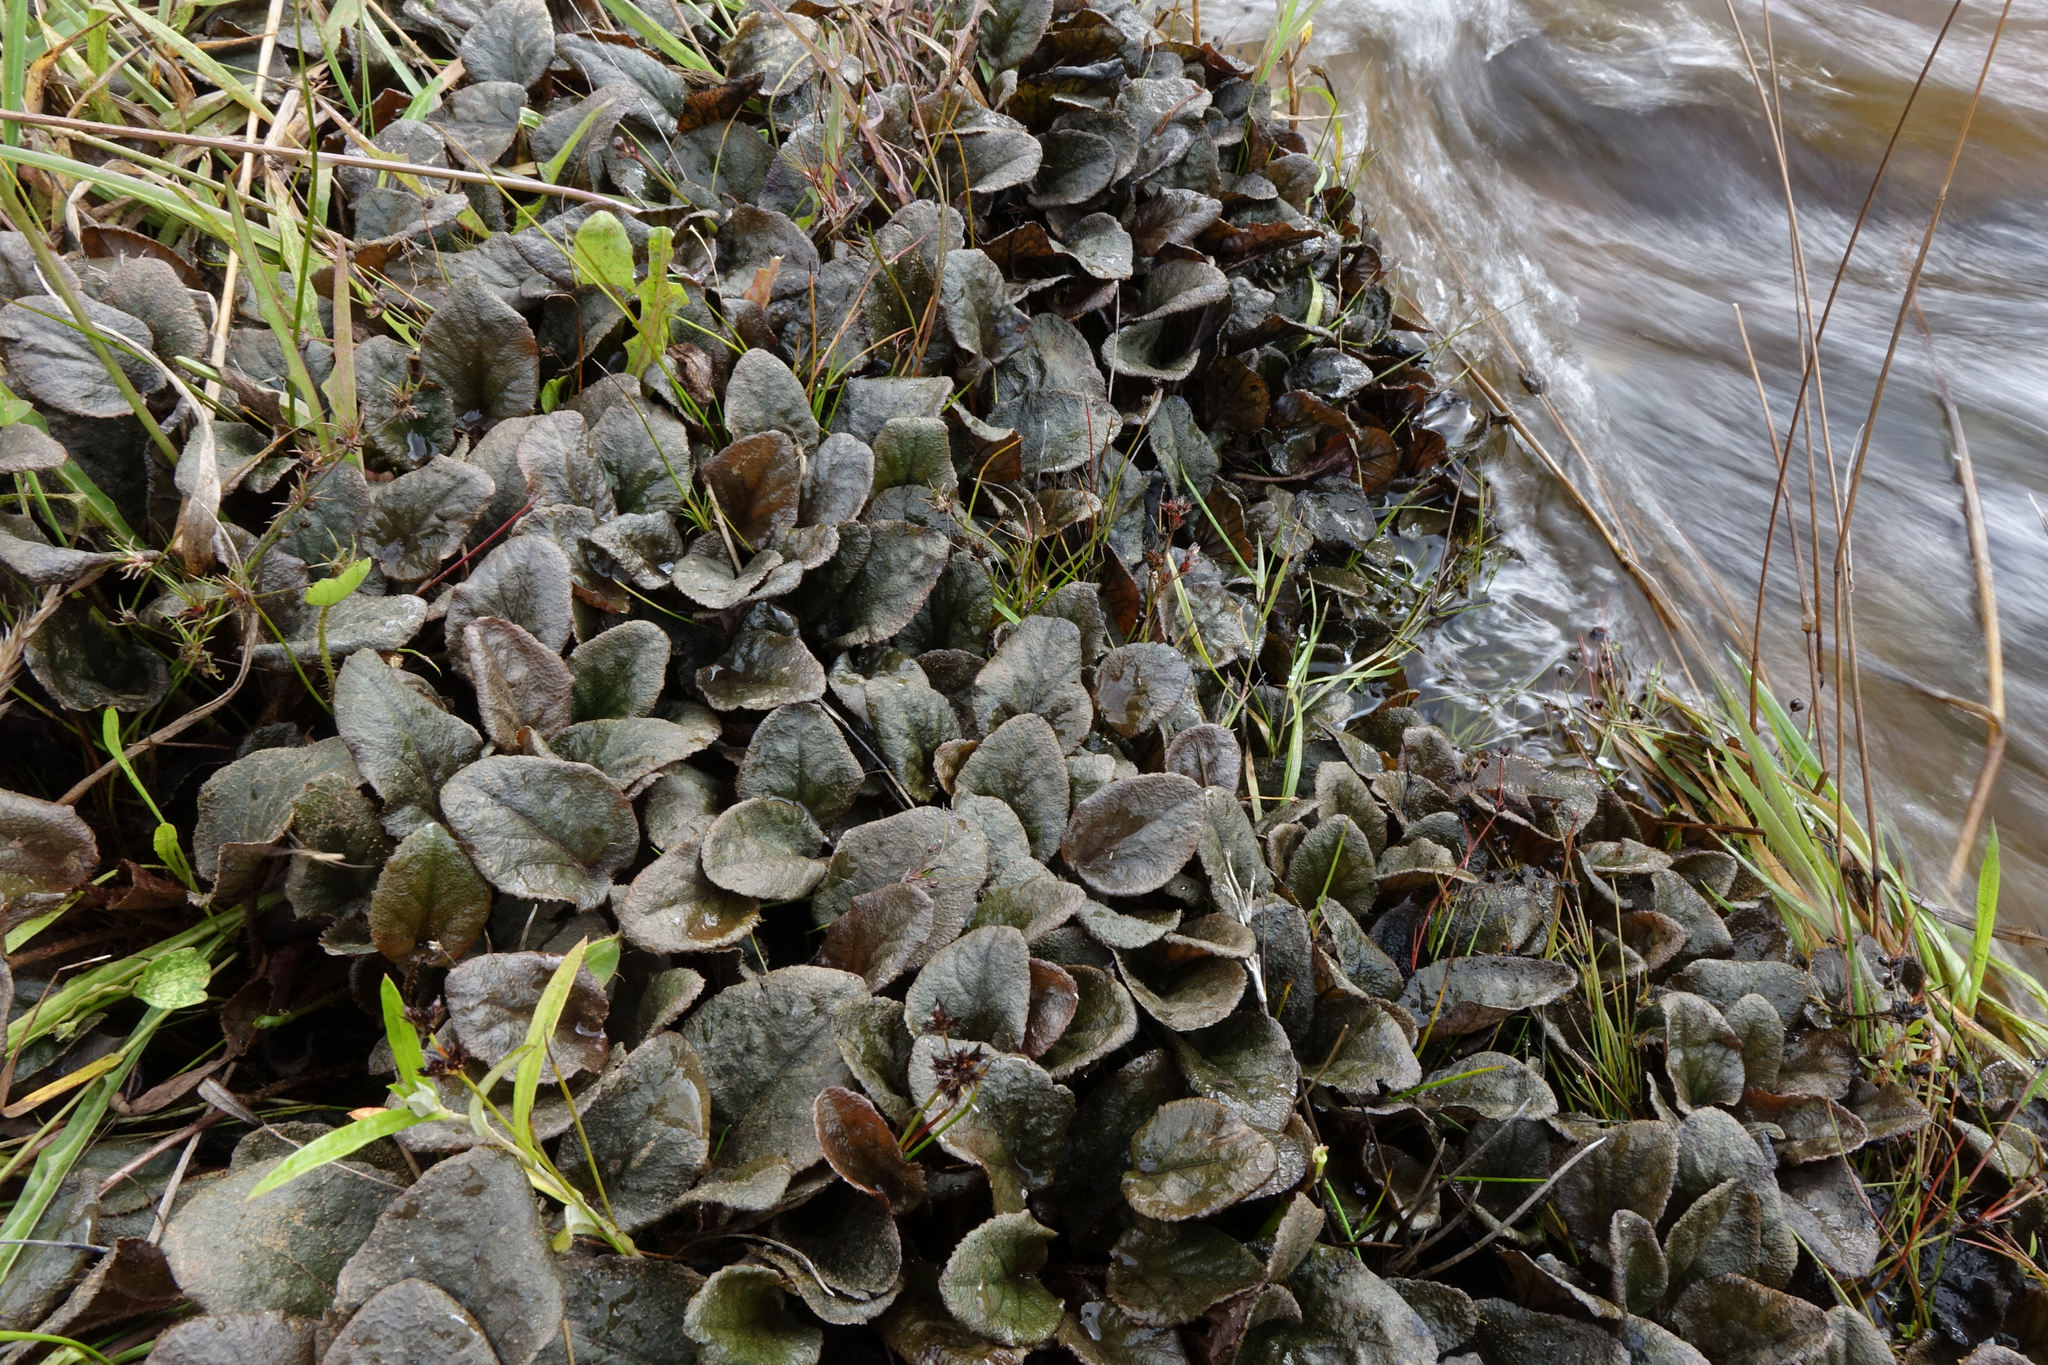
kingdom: Plantae
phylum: Tracheophyta
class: Magnoliopsida
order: Gunnerales
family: Gunneraceae
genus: Gunnera
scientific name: Gunnera prorepens
